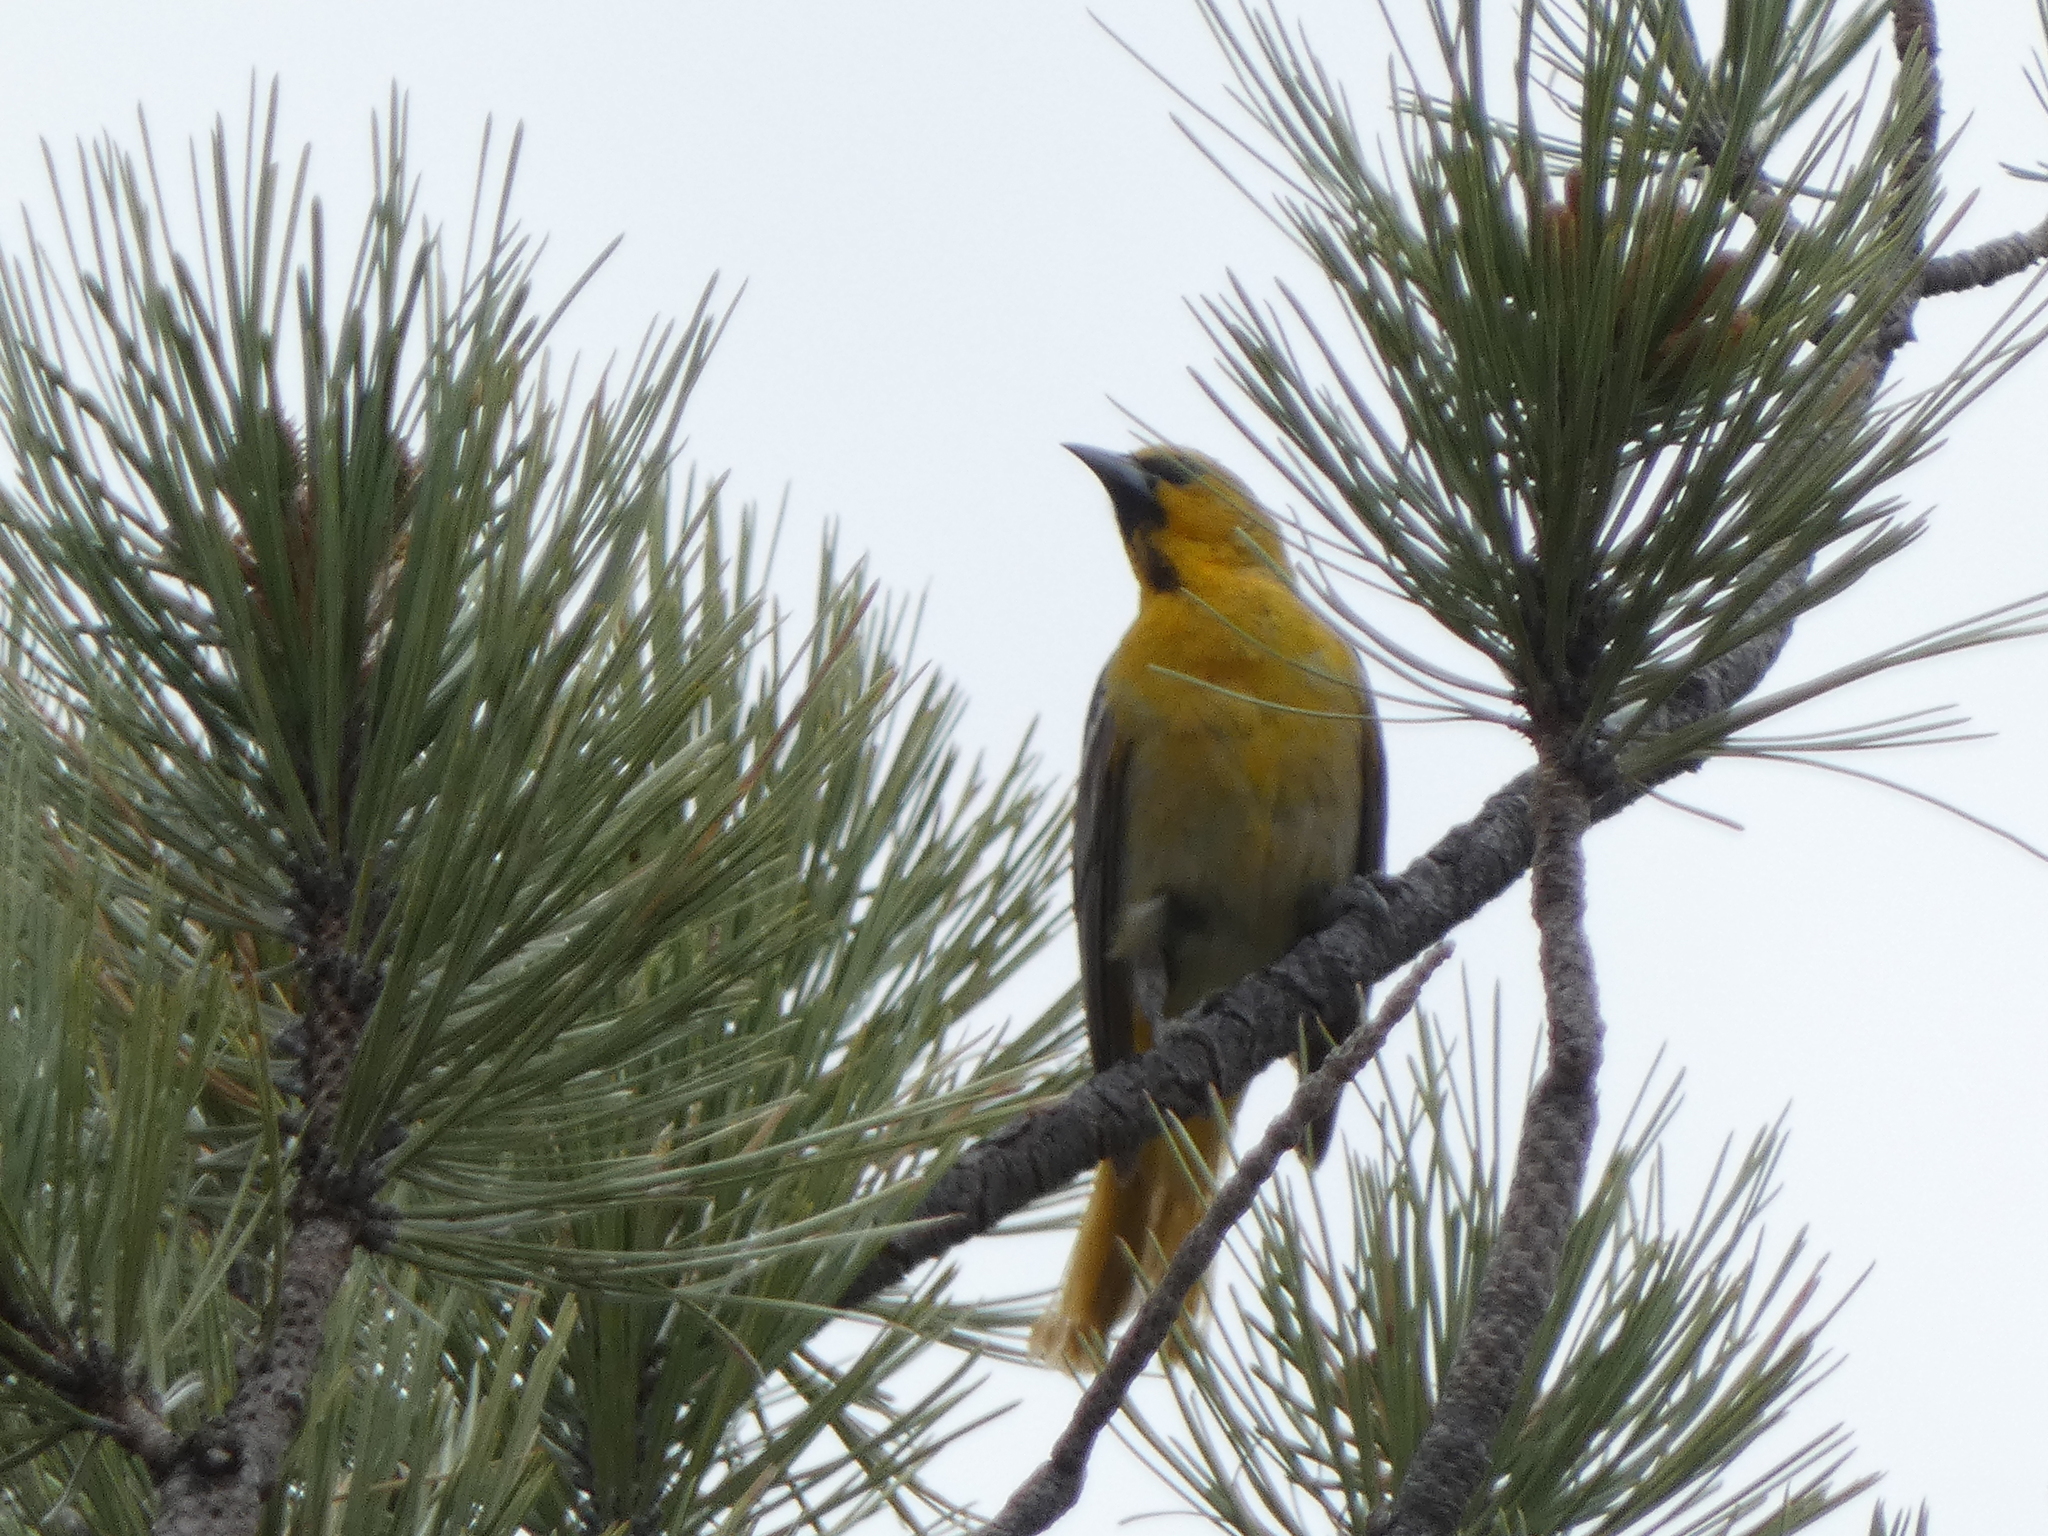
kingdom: Animalia
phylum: Chordata
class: Aves
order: Passeriformes
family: Icteridae
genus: Icterus
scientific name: Icterus bullockii
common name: Bullock's oriole
